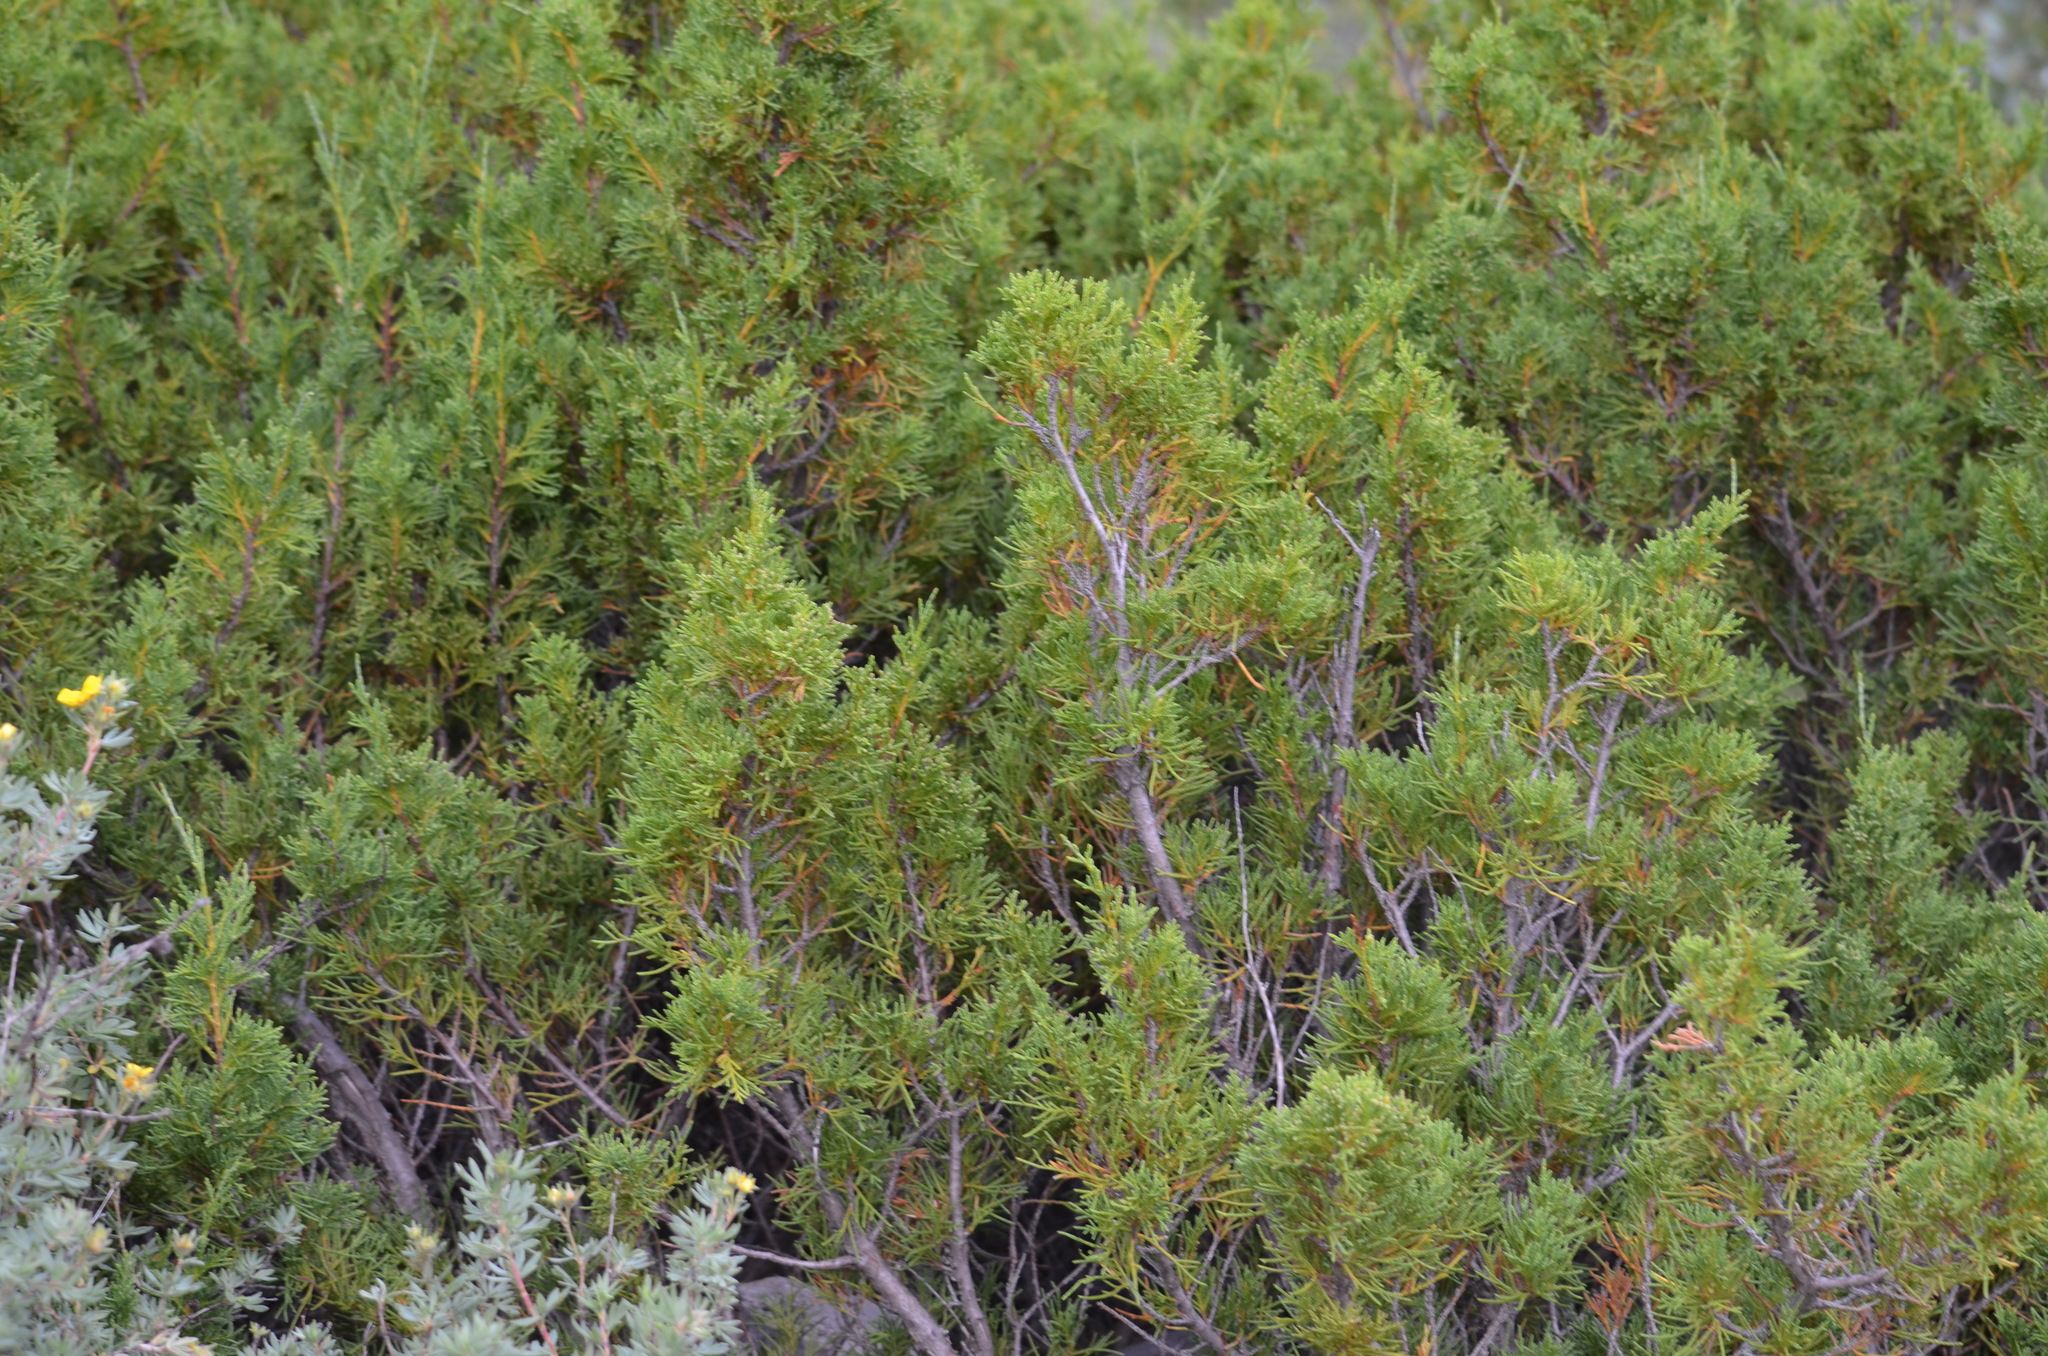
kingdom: Plantae
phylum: Tracheophyta
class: Pinopsida
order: Pinales
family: Cupressaceae
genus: Juniperus
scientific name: Juniperus scopulorum
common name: Rocky mountain juniper
